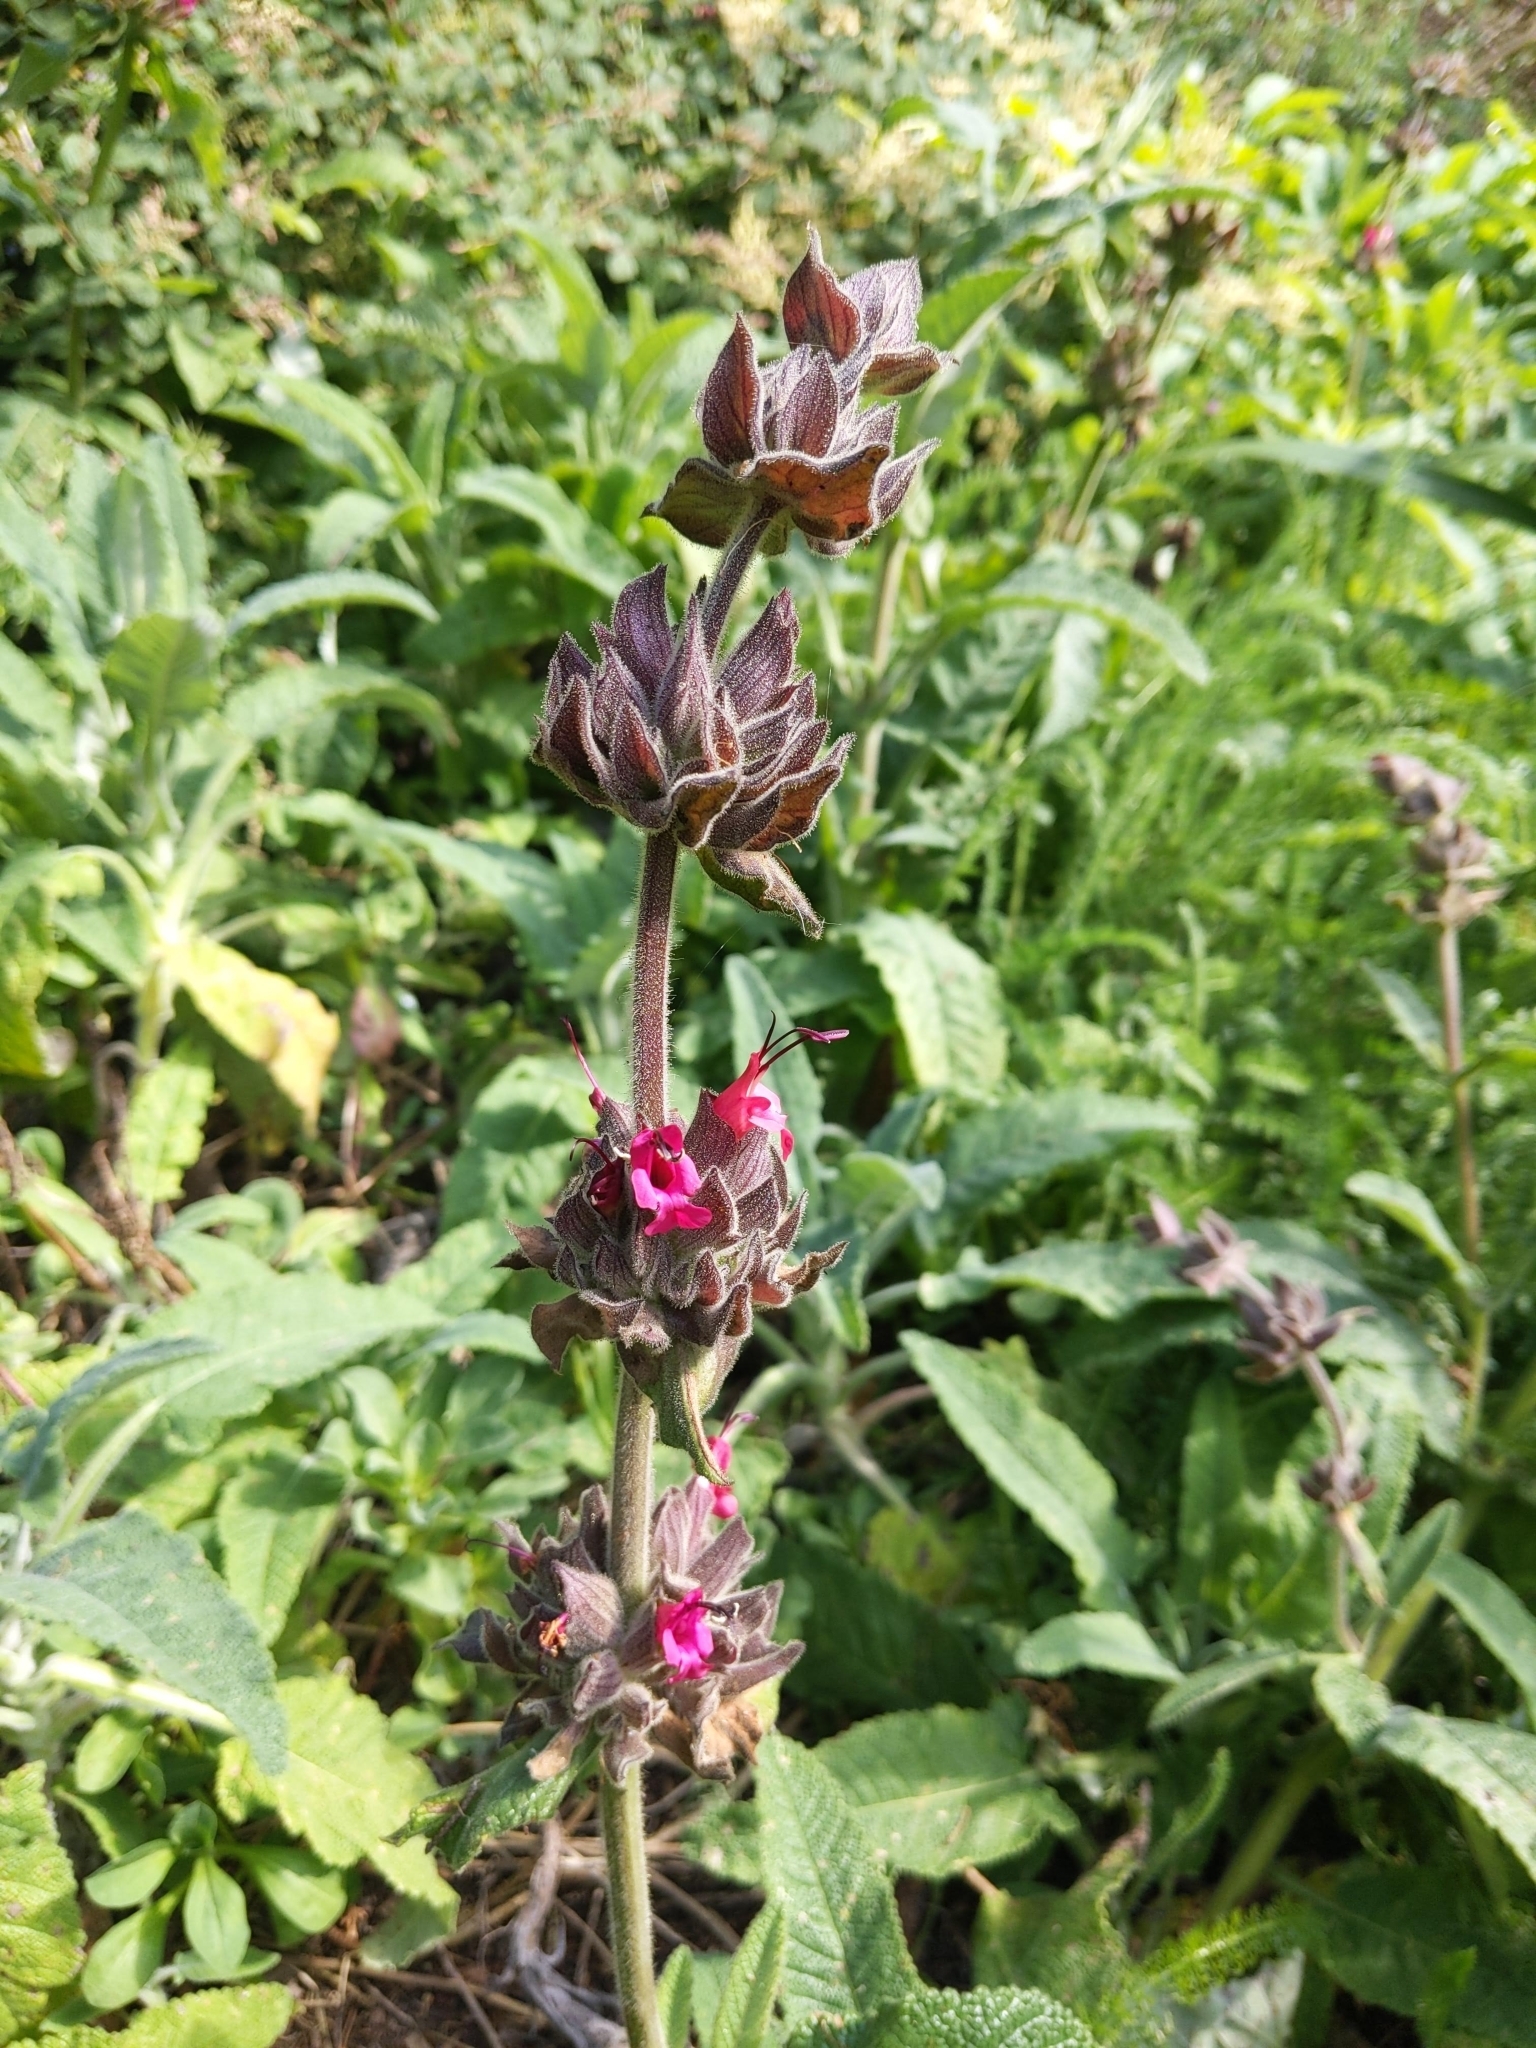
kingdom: Plantae
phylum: Tracheophyta
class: Magnoliopsida
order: Lamiales
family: Lamiaceae
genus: Salvia
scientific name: Salvia spathacea
